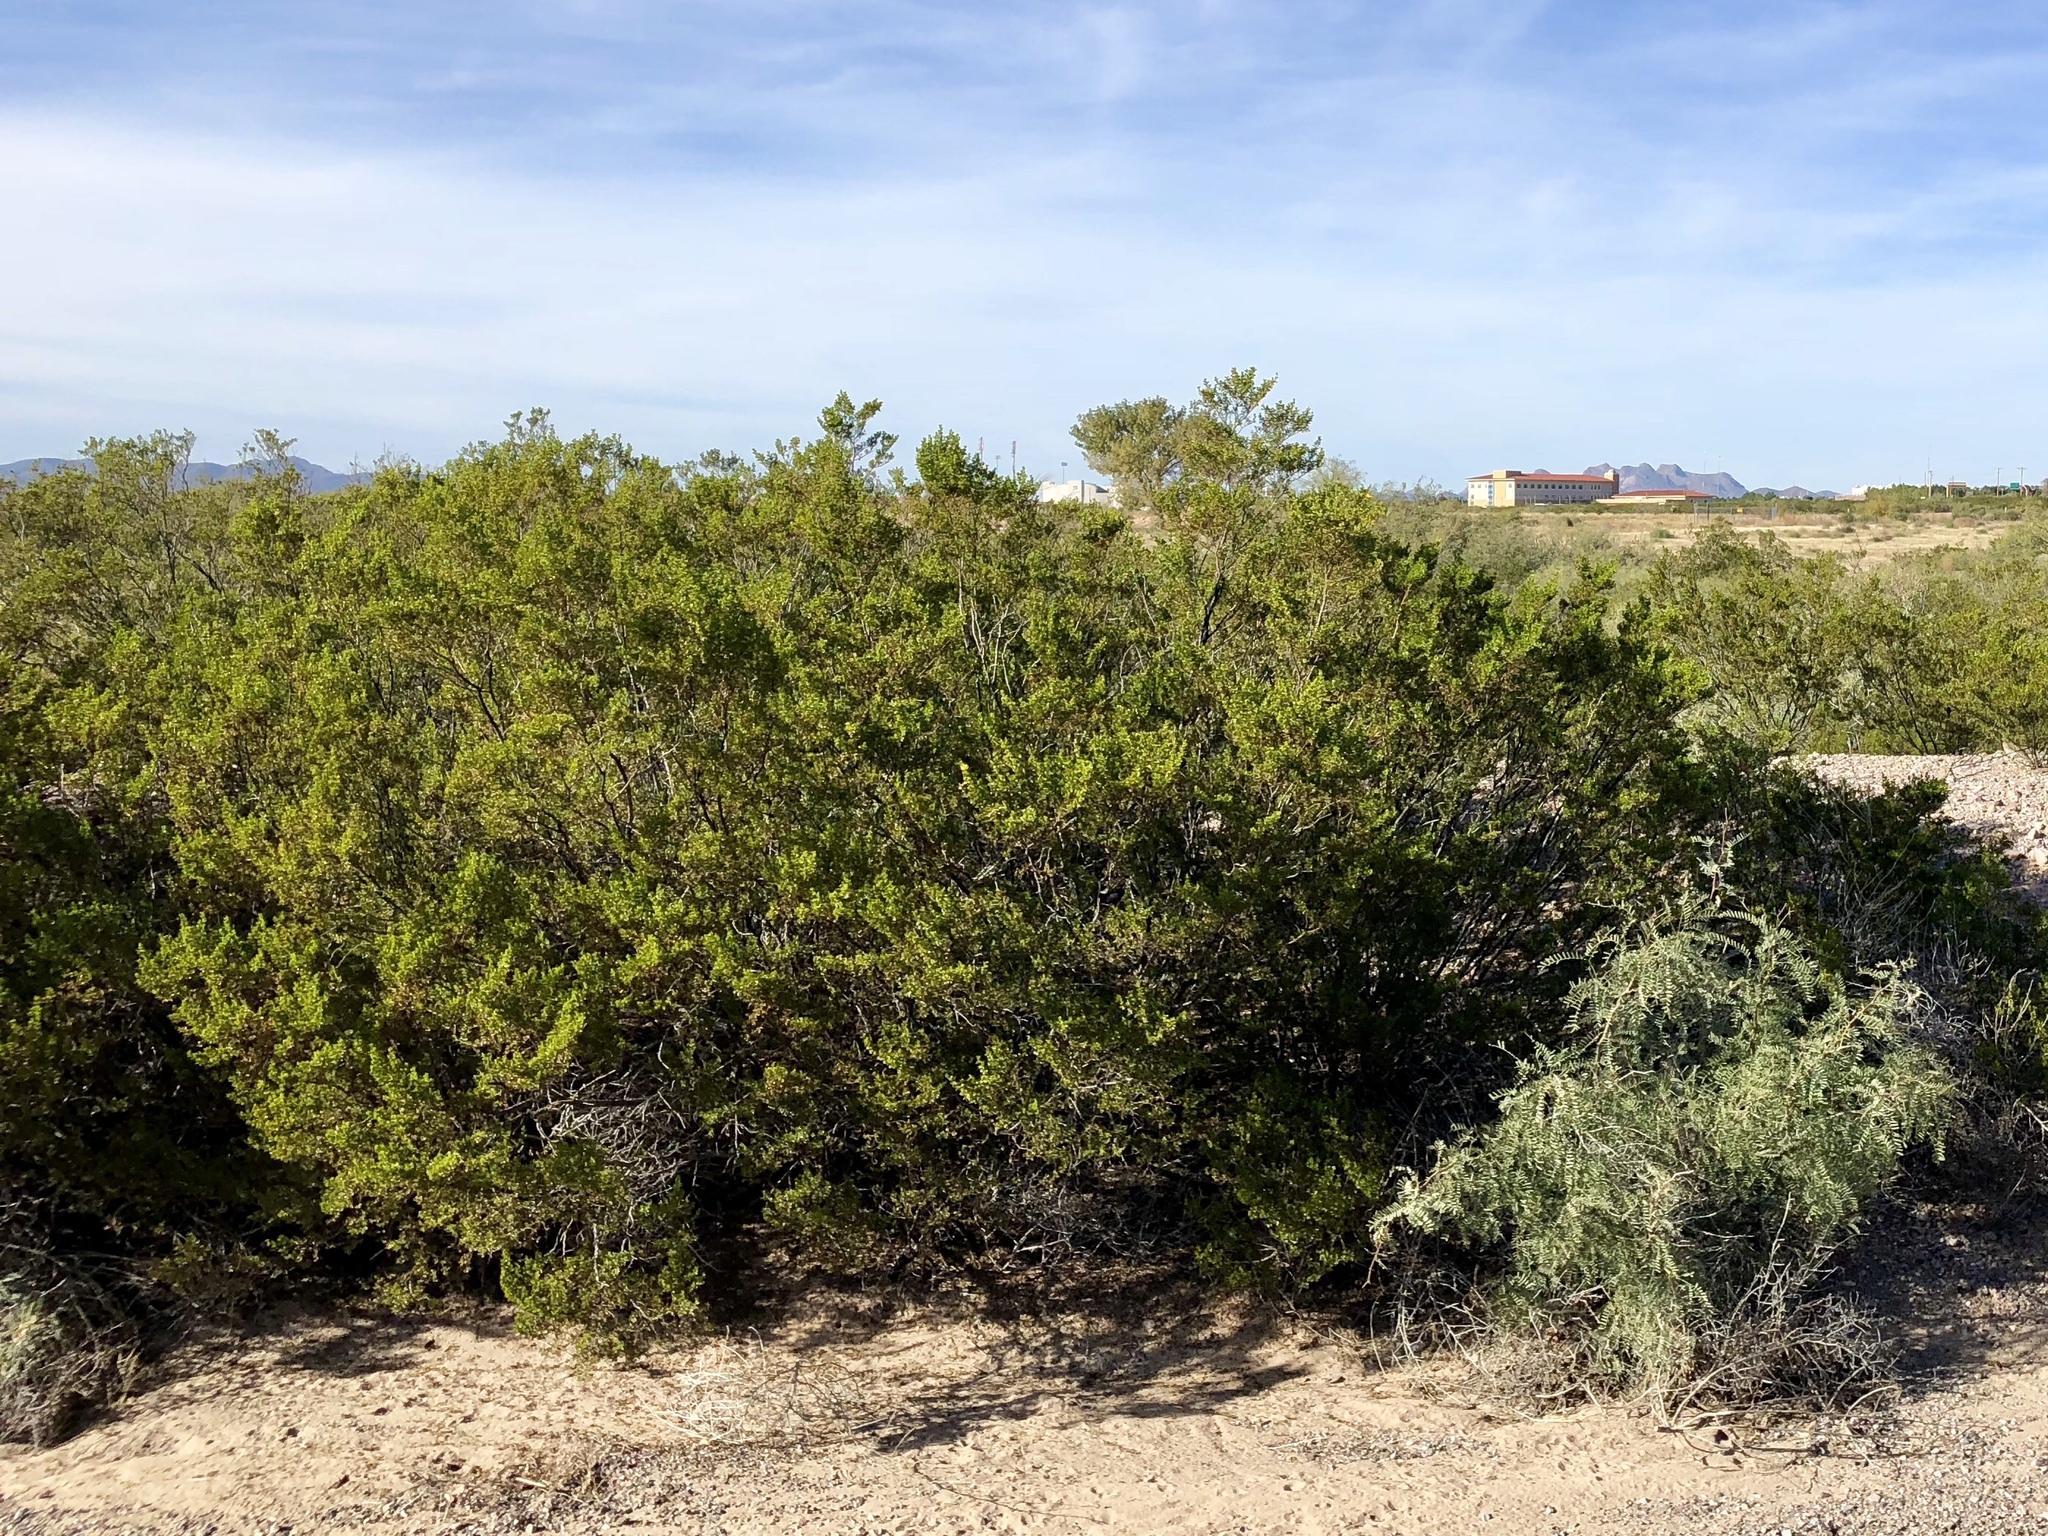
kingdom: Plantae
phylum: Tracheophyta
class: Magnoliopsida
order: Zygophyllales
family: Zygophyllaceae
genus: Larrea
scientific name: Larrea tridentata
